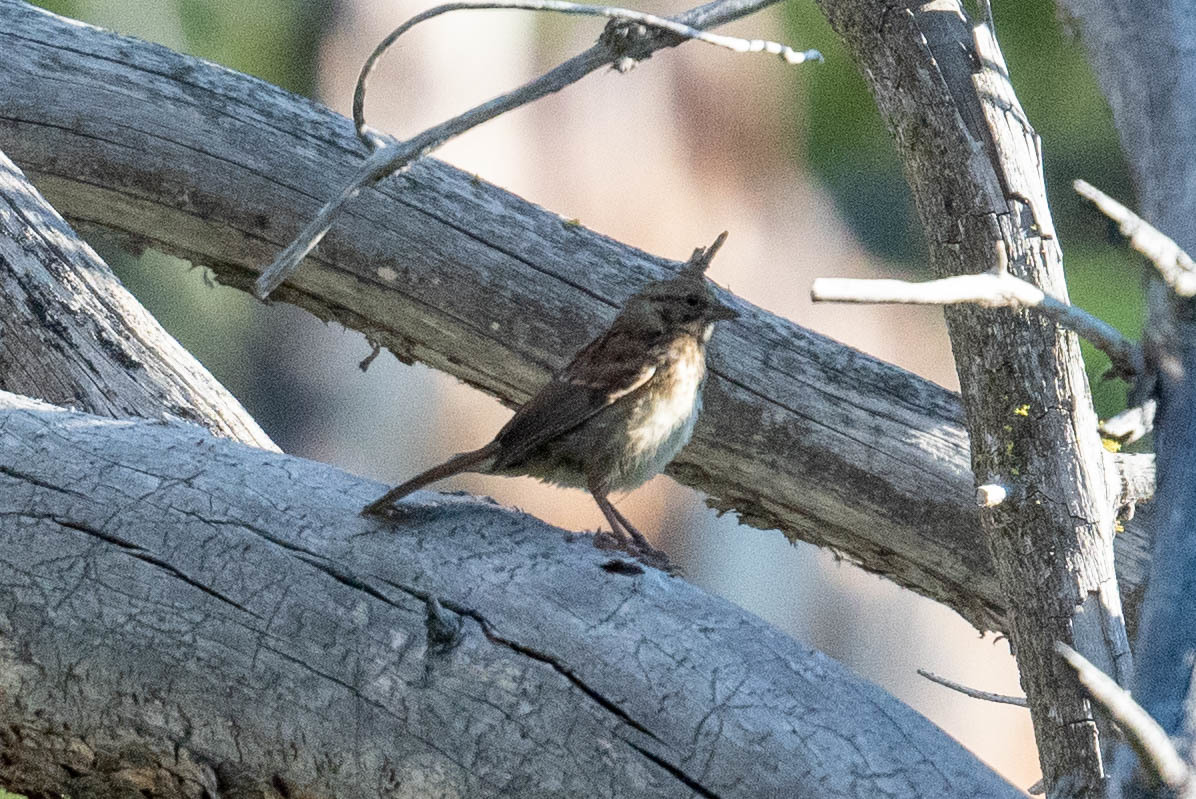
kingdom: Animalia
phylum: Chordata
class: Aves
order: Passeriformes
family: Passerellidae
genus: Melospiza
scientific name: Melospiza melodia
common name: Song sparrow
